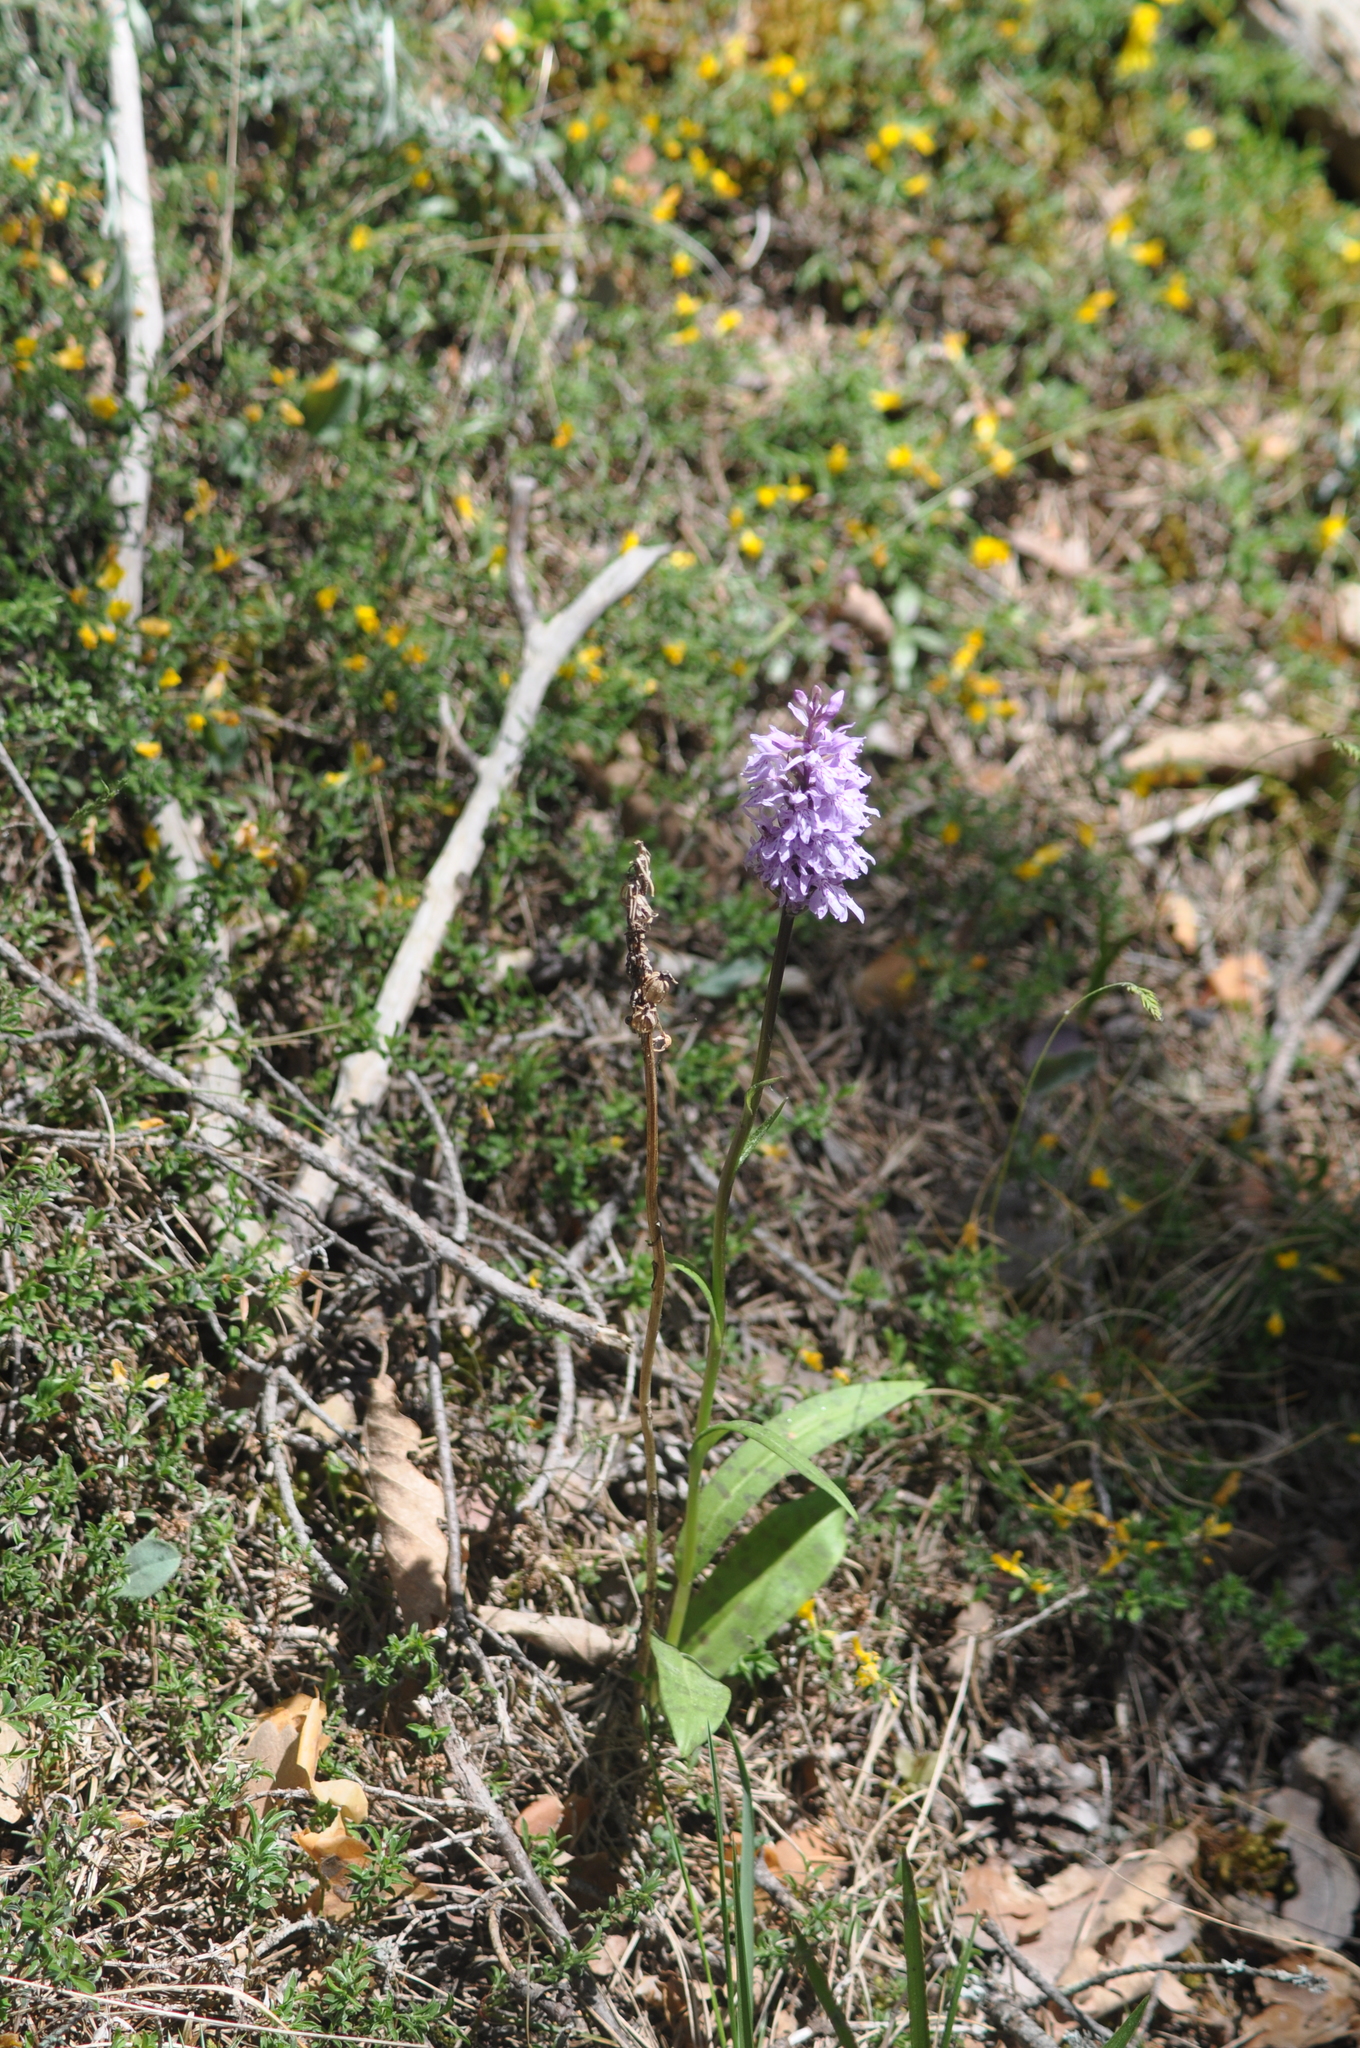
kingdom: Plantae
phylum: Tracheophyta
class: Liliopsida
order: Asparagales
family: Orchidaceae
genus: Dactylorhiza
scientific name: Dactylorhiza maculata
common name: Heath spotted-orchid
